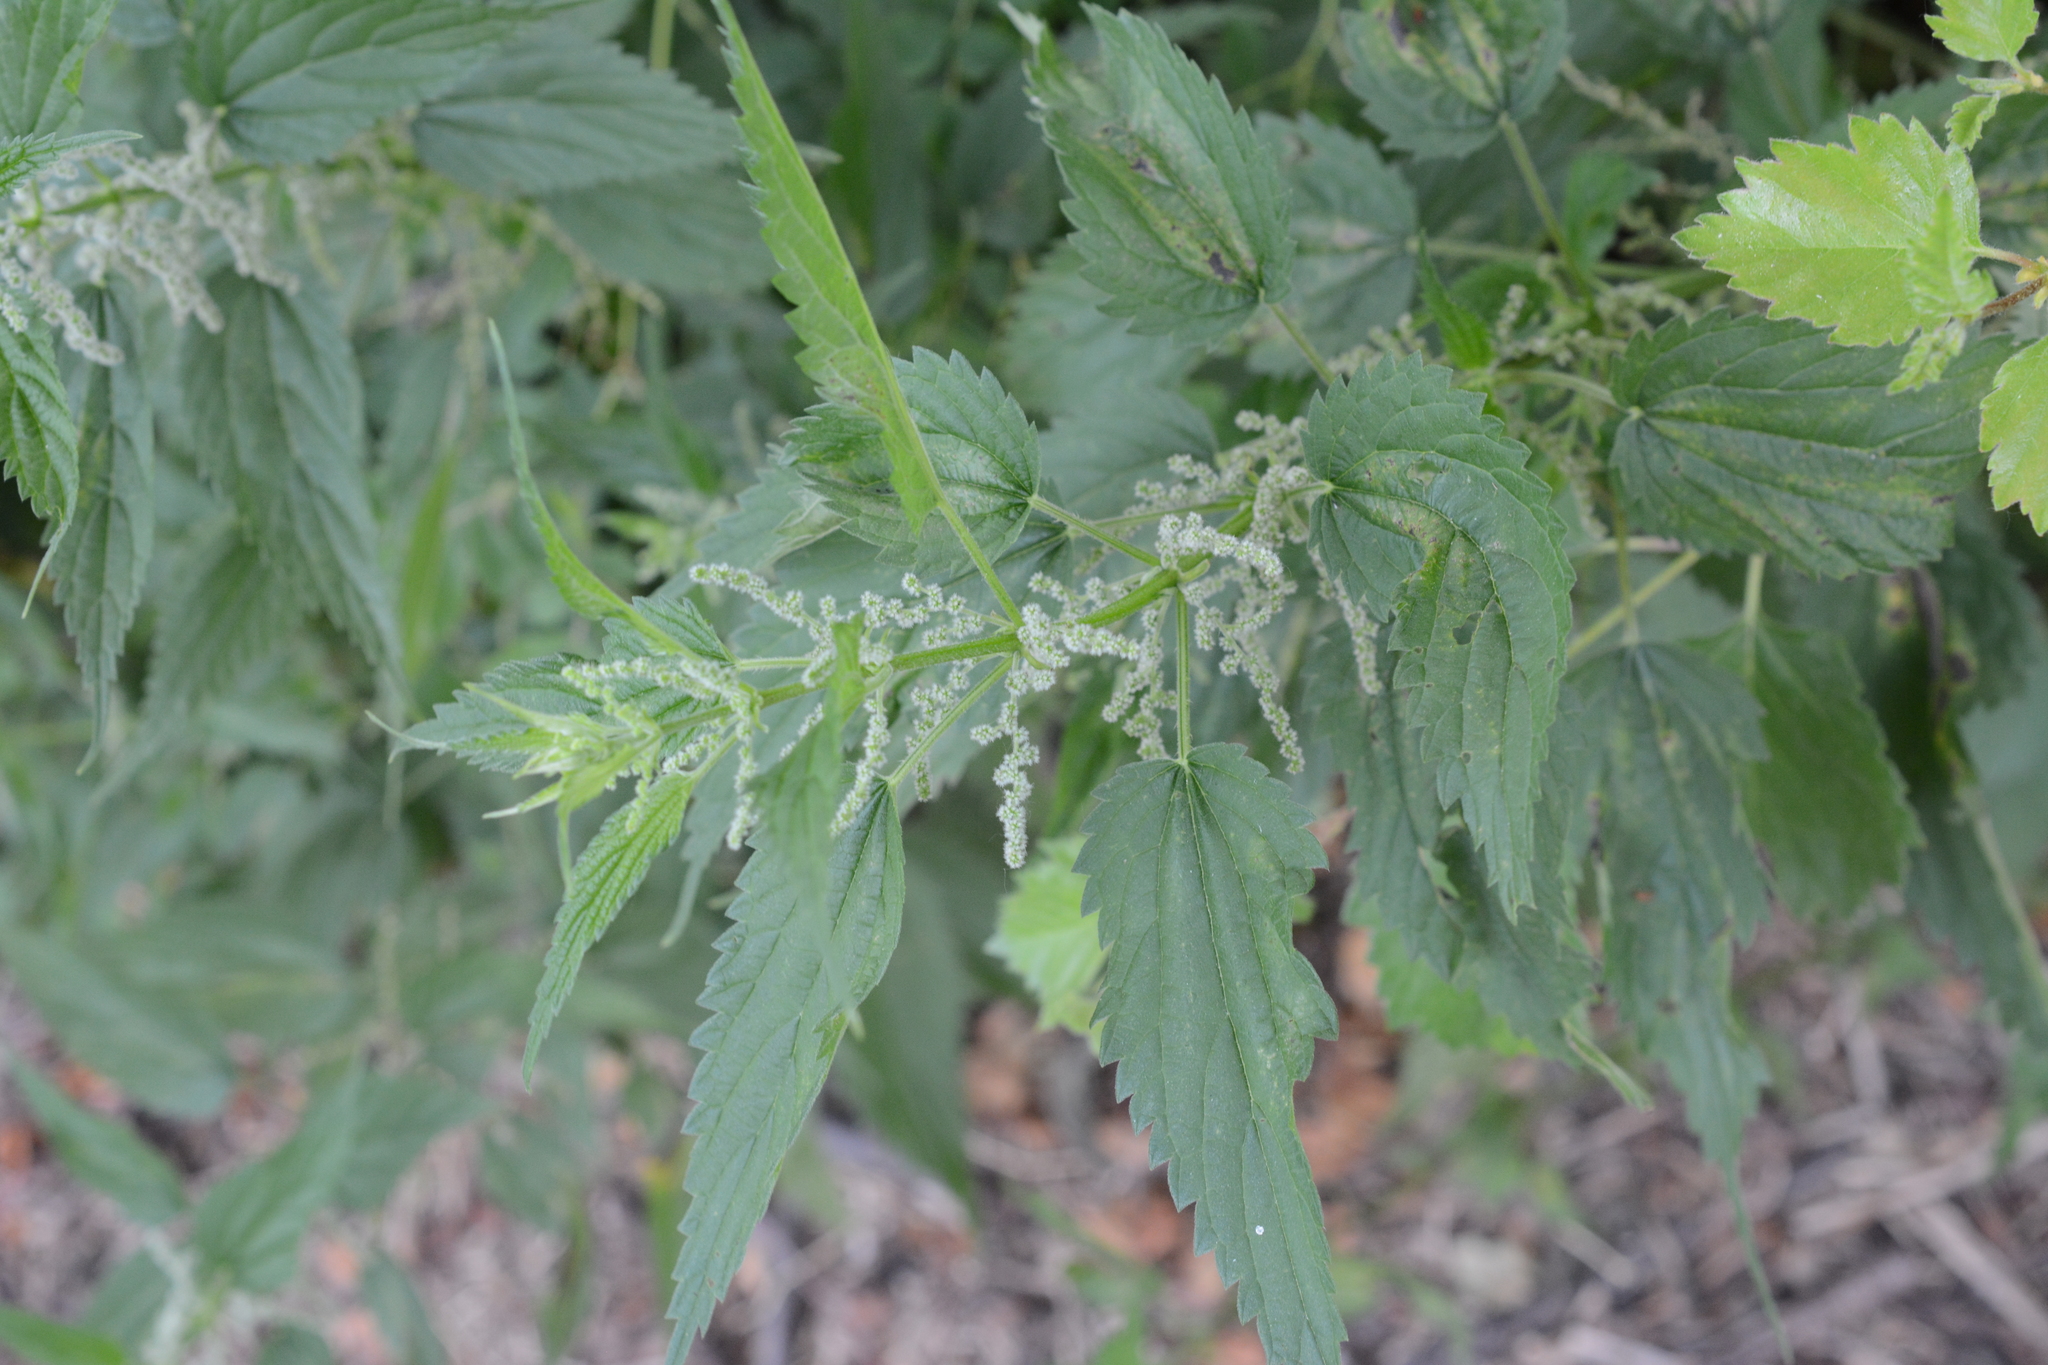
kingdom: Plantae
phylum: Tracheophyta
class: Magnoliopsida
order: Rosales
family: Urticaceae
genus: Urtica
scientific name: Urtica dioica
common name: Common nettle
